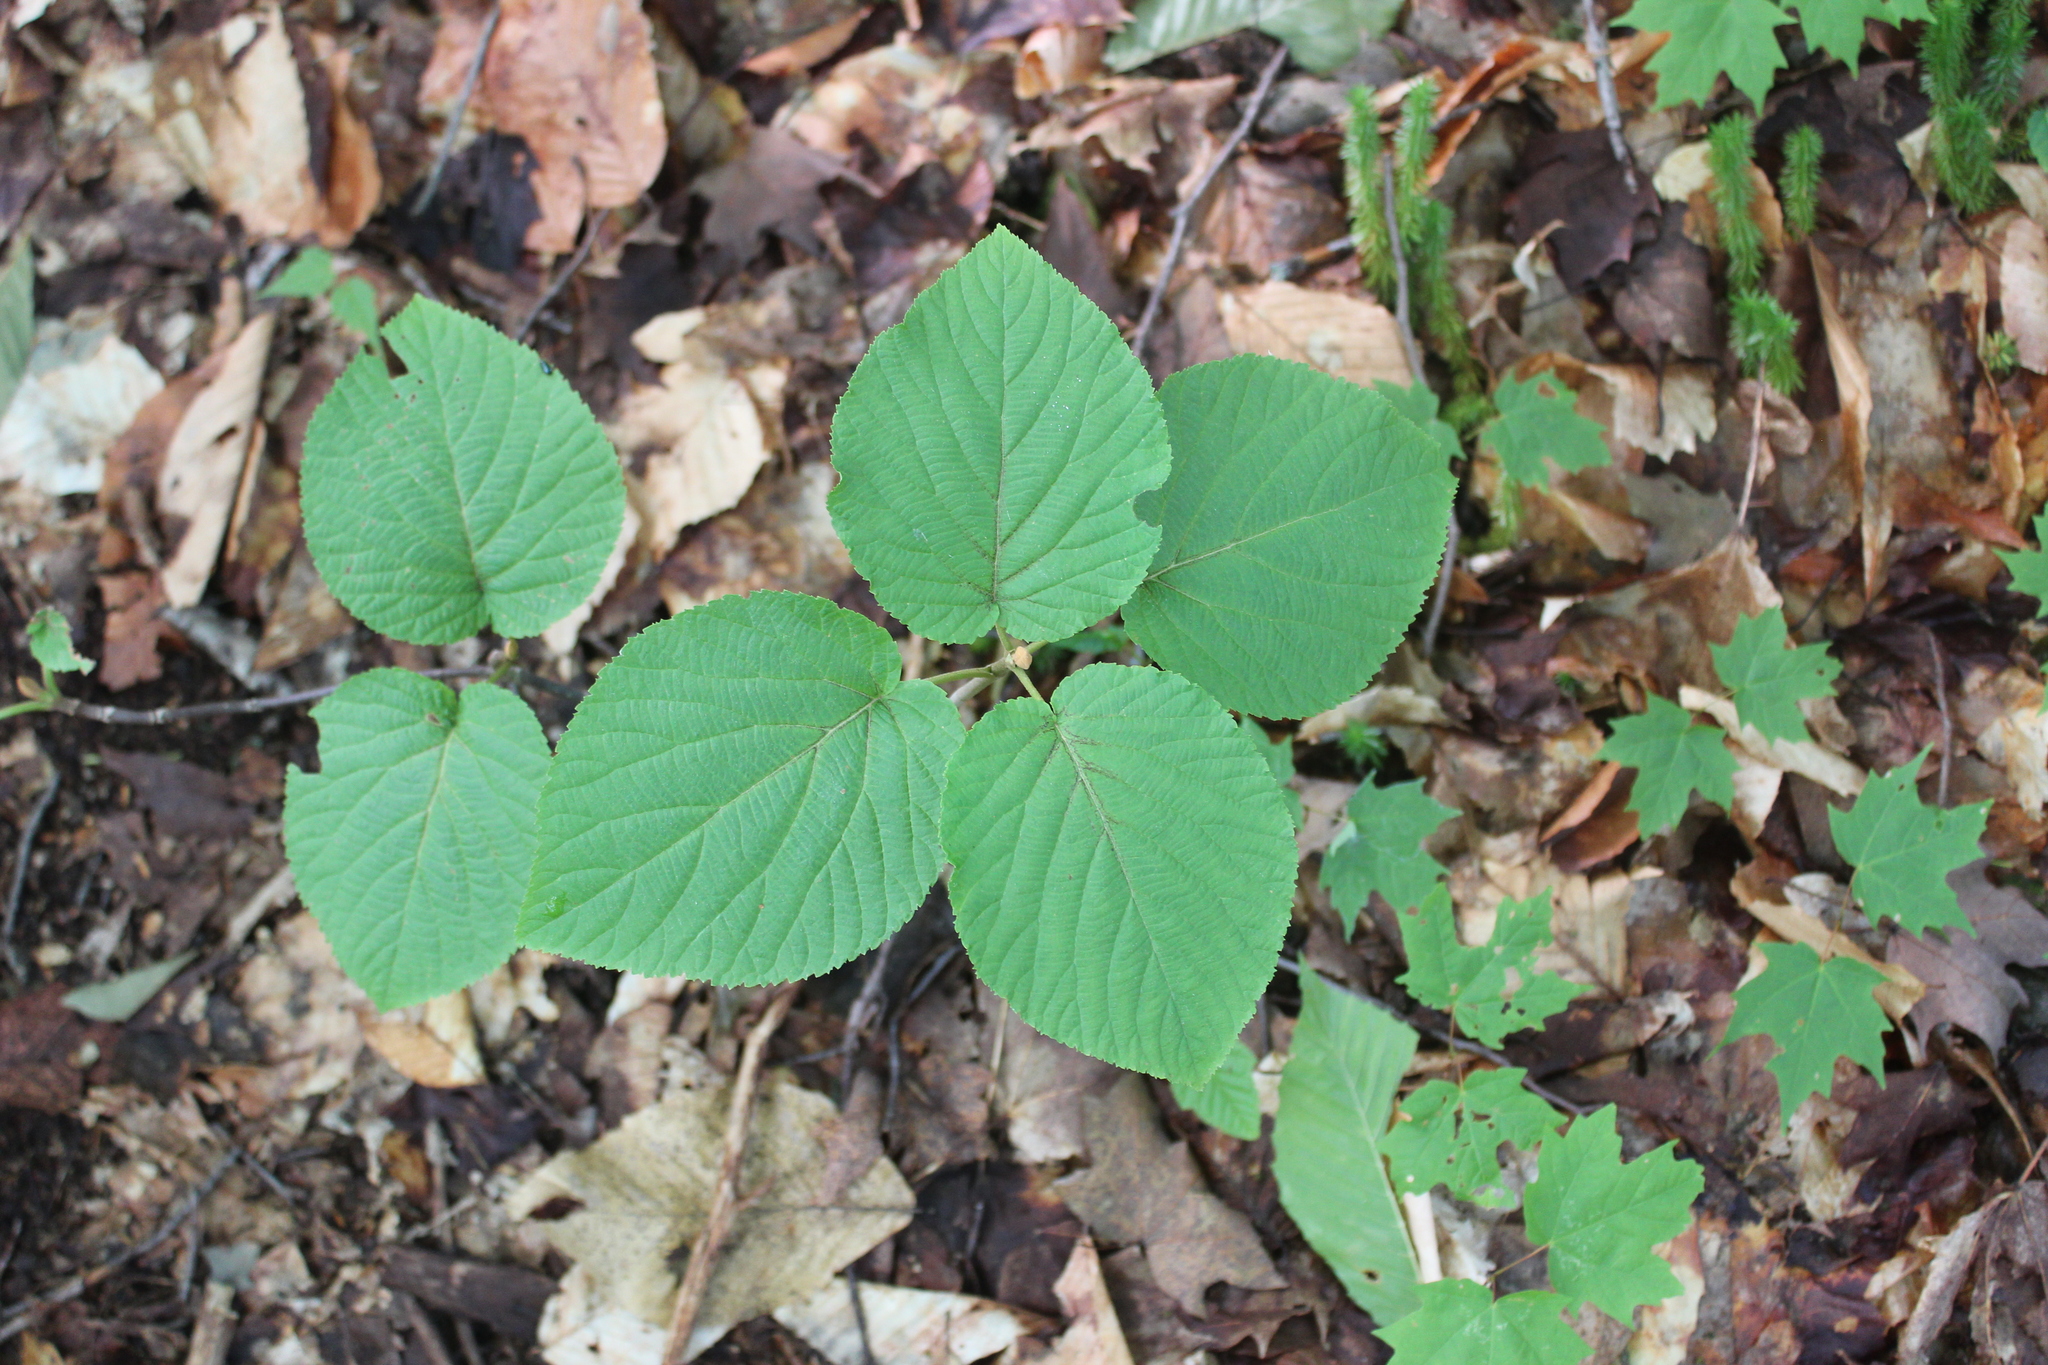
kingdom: Plantae
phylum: Tracheophyta
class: Magnoliopsida
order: Dipsacales
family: Viburnaceae
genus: Viburnum
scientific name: Viburnum lantanoides
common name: Hobblebush
